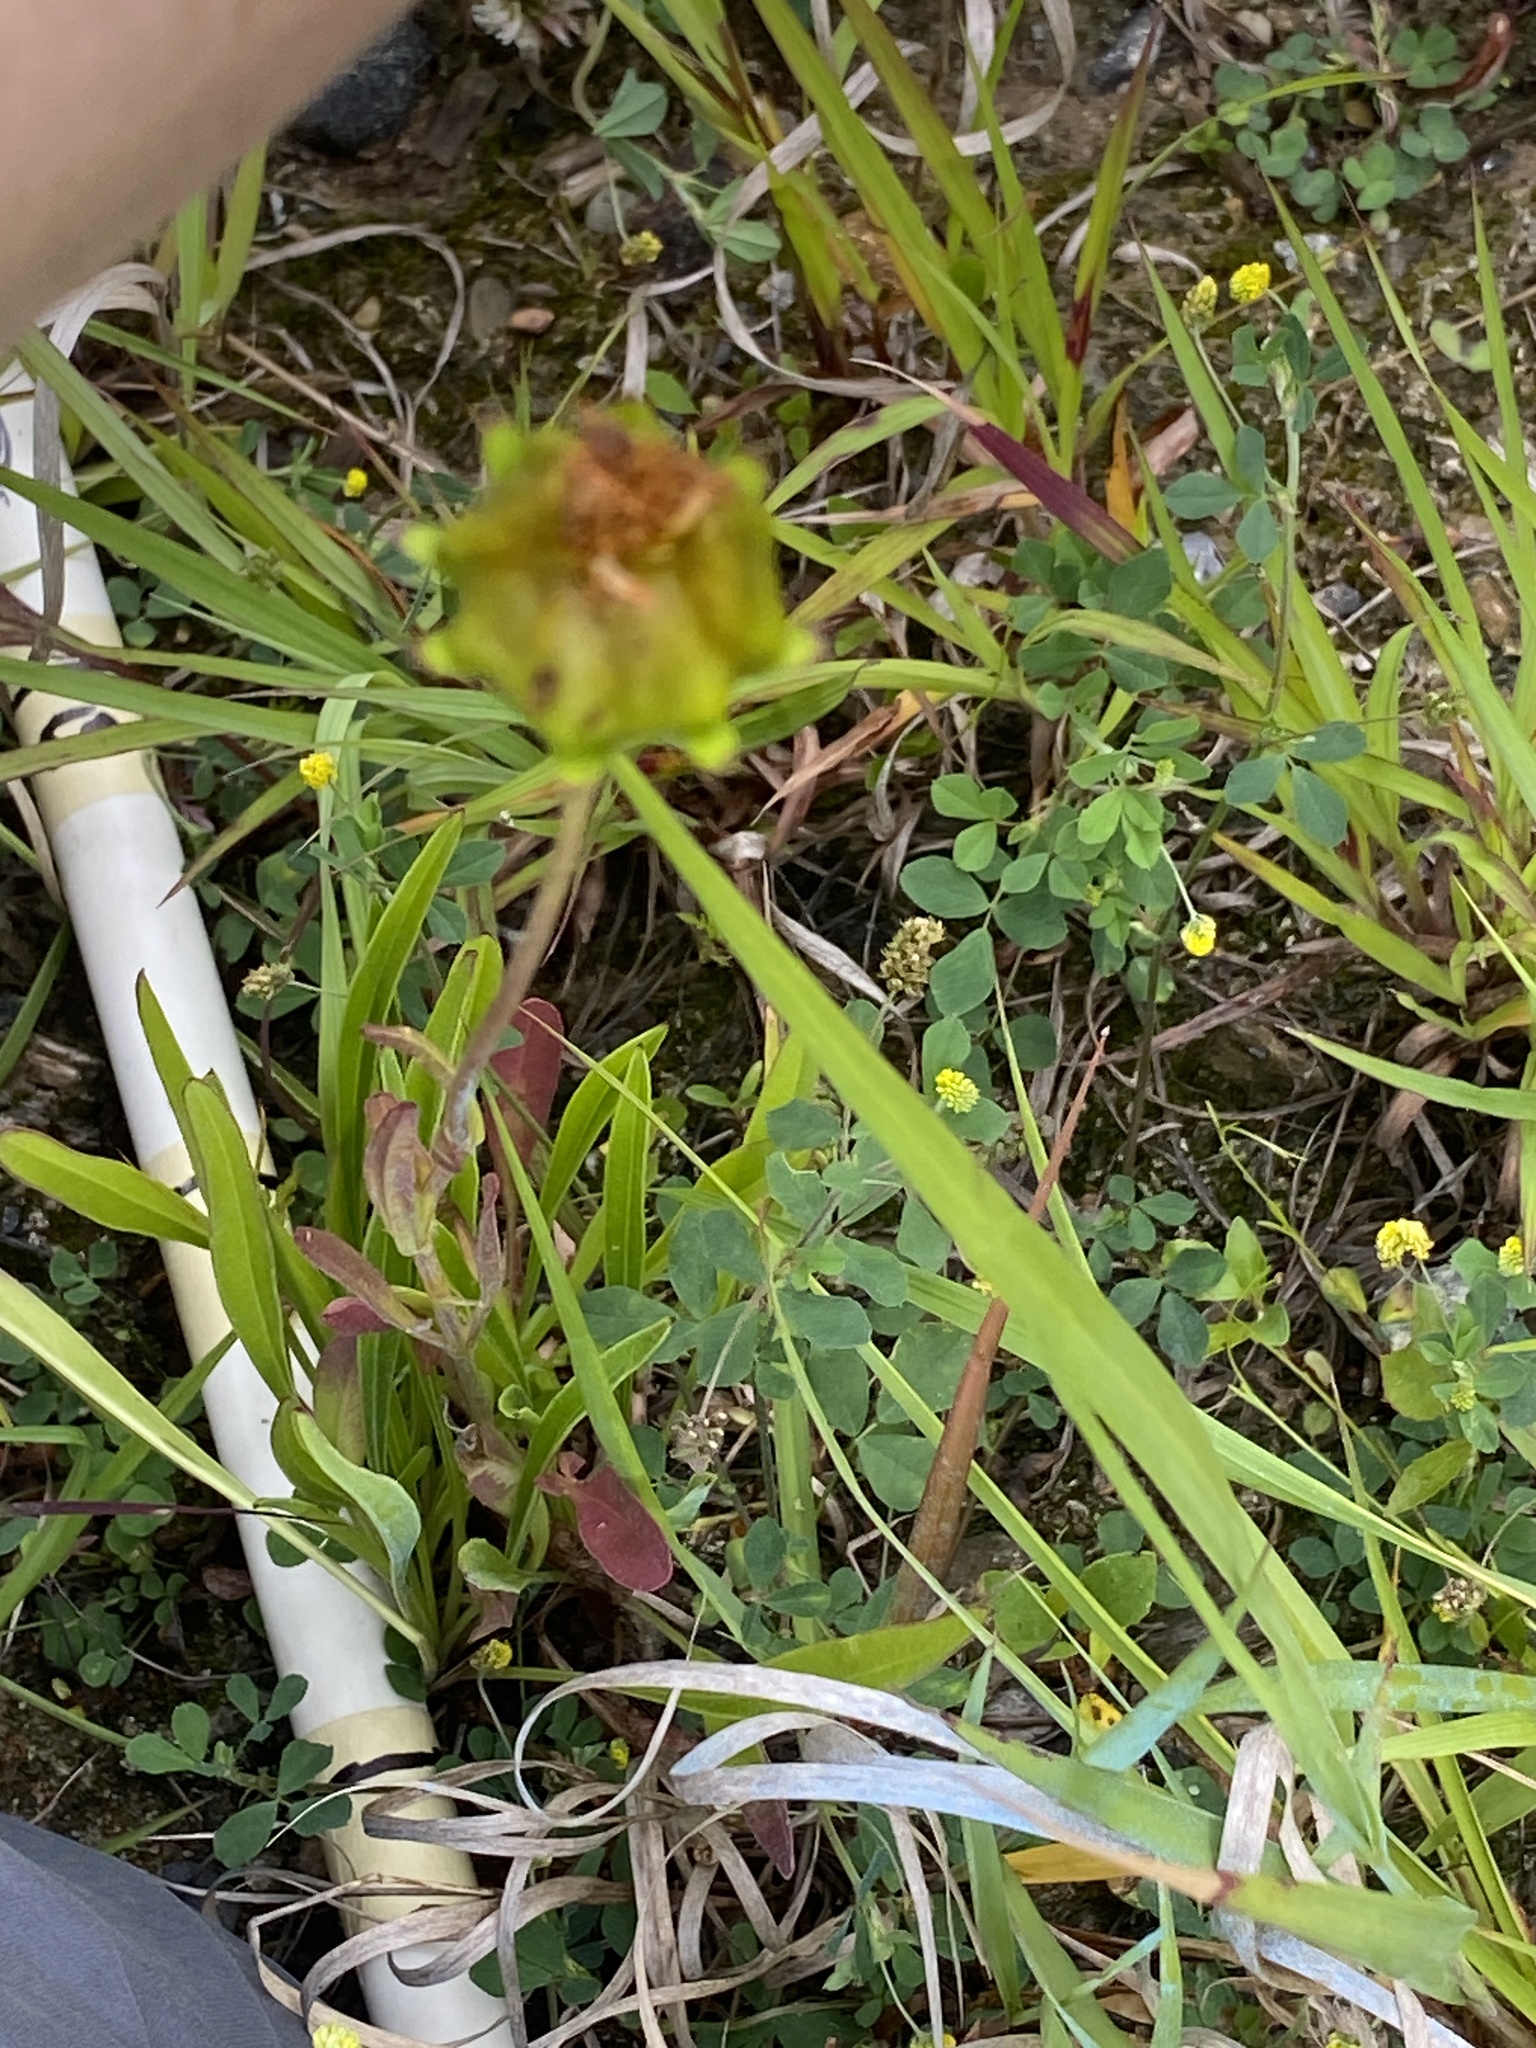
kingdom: Plantae
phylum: Tracheophyta
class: Magnoliopsida
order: Asterales
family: Asteraceae
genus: Coreopsis
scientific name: Coreopsis lanceolata
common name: Garden coreopsis
